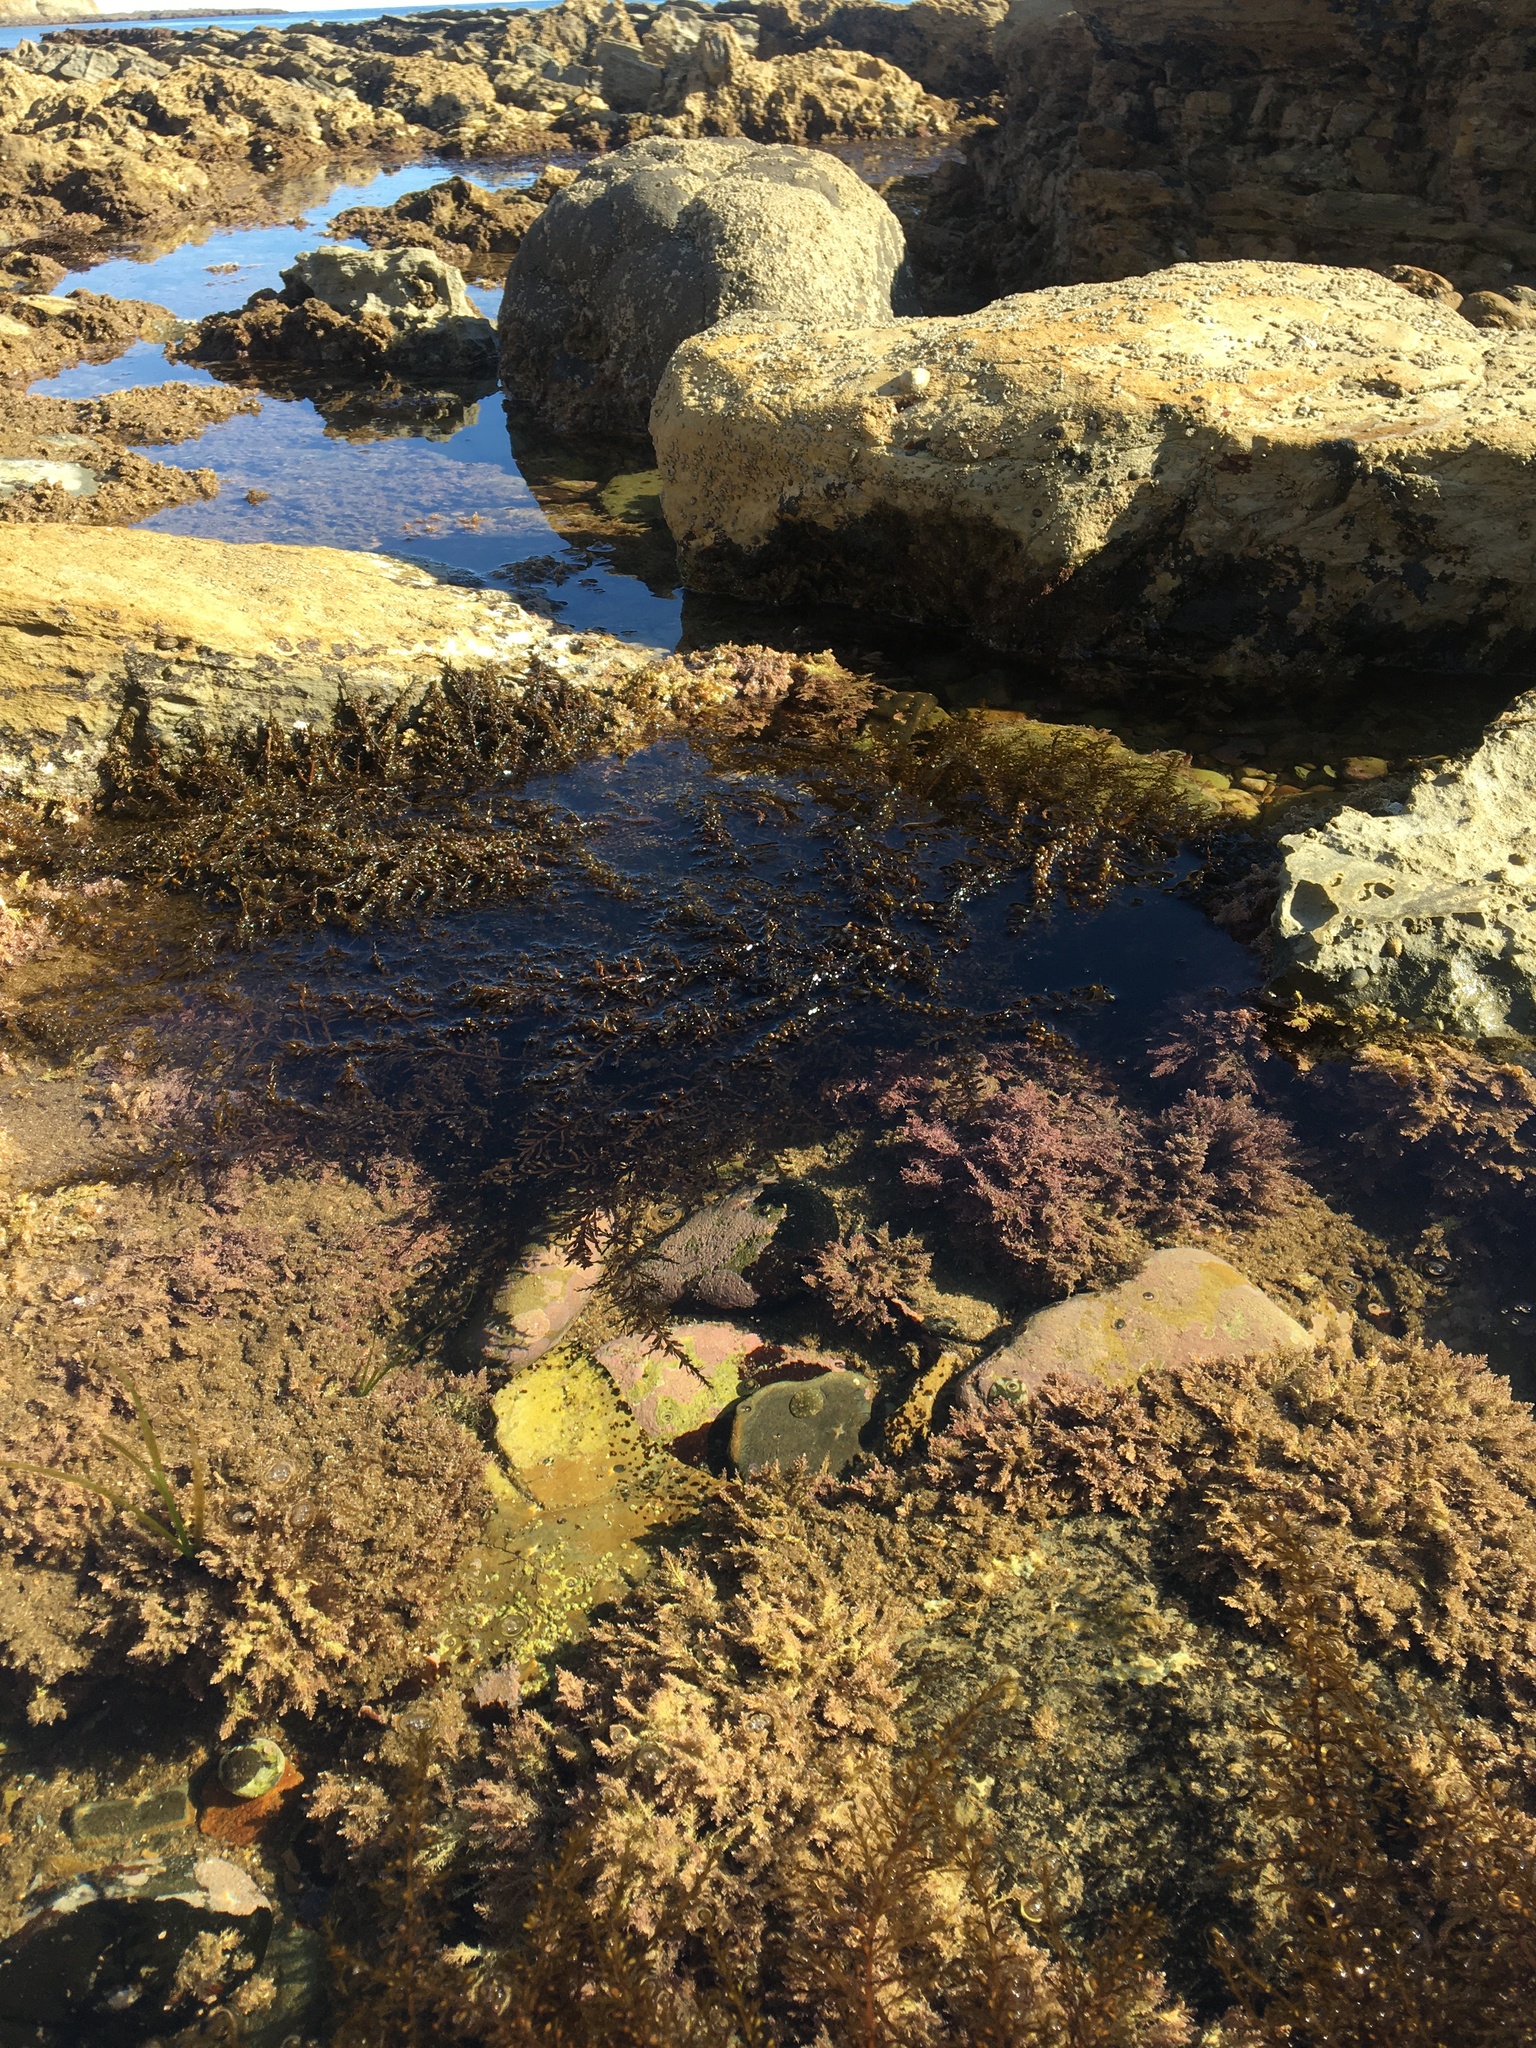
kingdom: Chromista
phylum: Ochrophyta
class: Phaeophyceae
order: Fucales
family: Sargassaceae
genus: Sargassum
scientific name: Sargassum muticum
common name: Japweed
